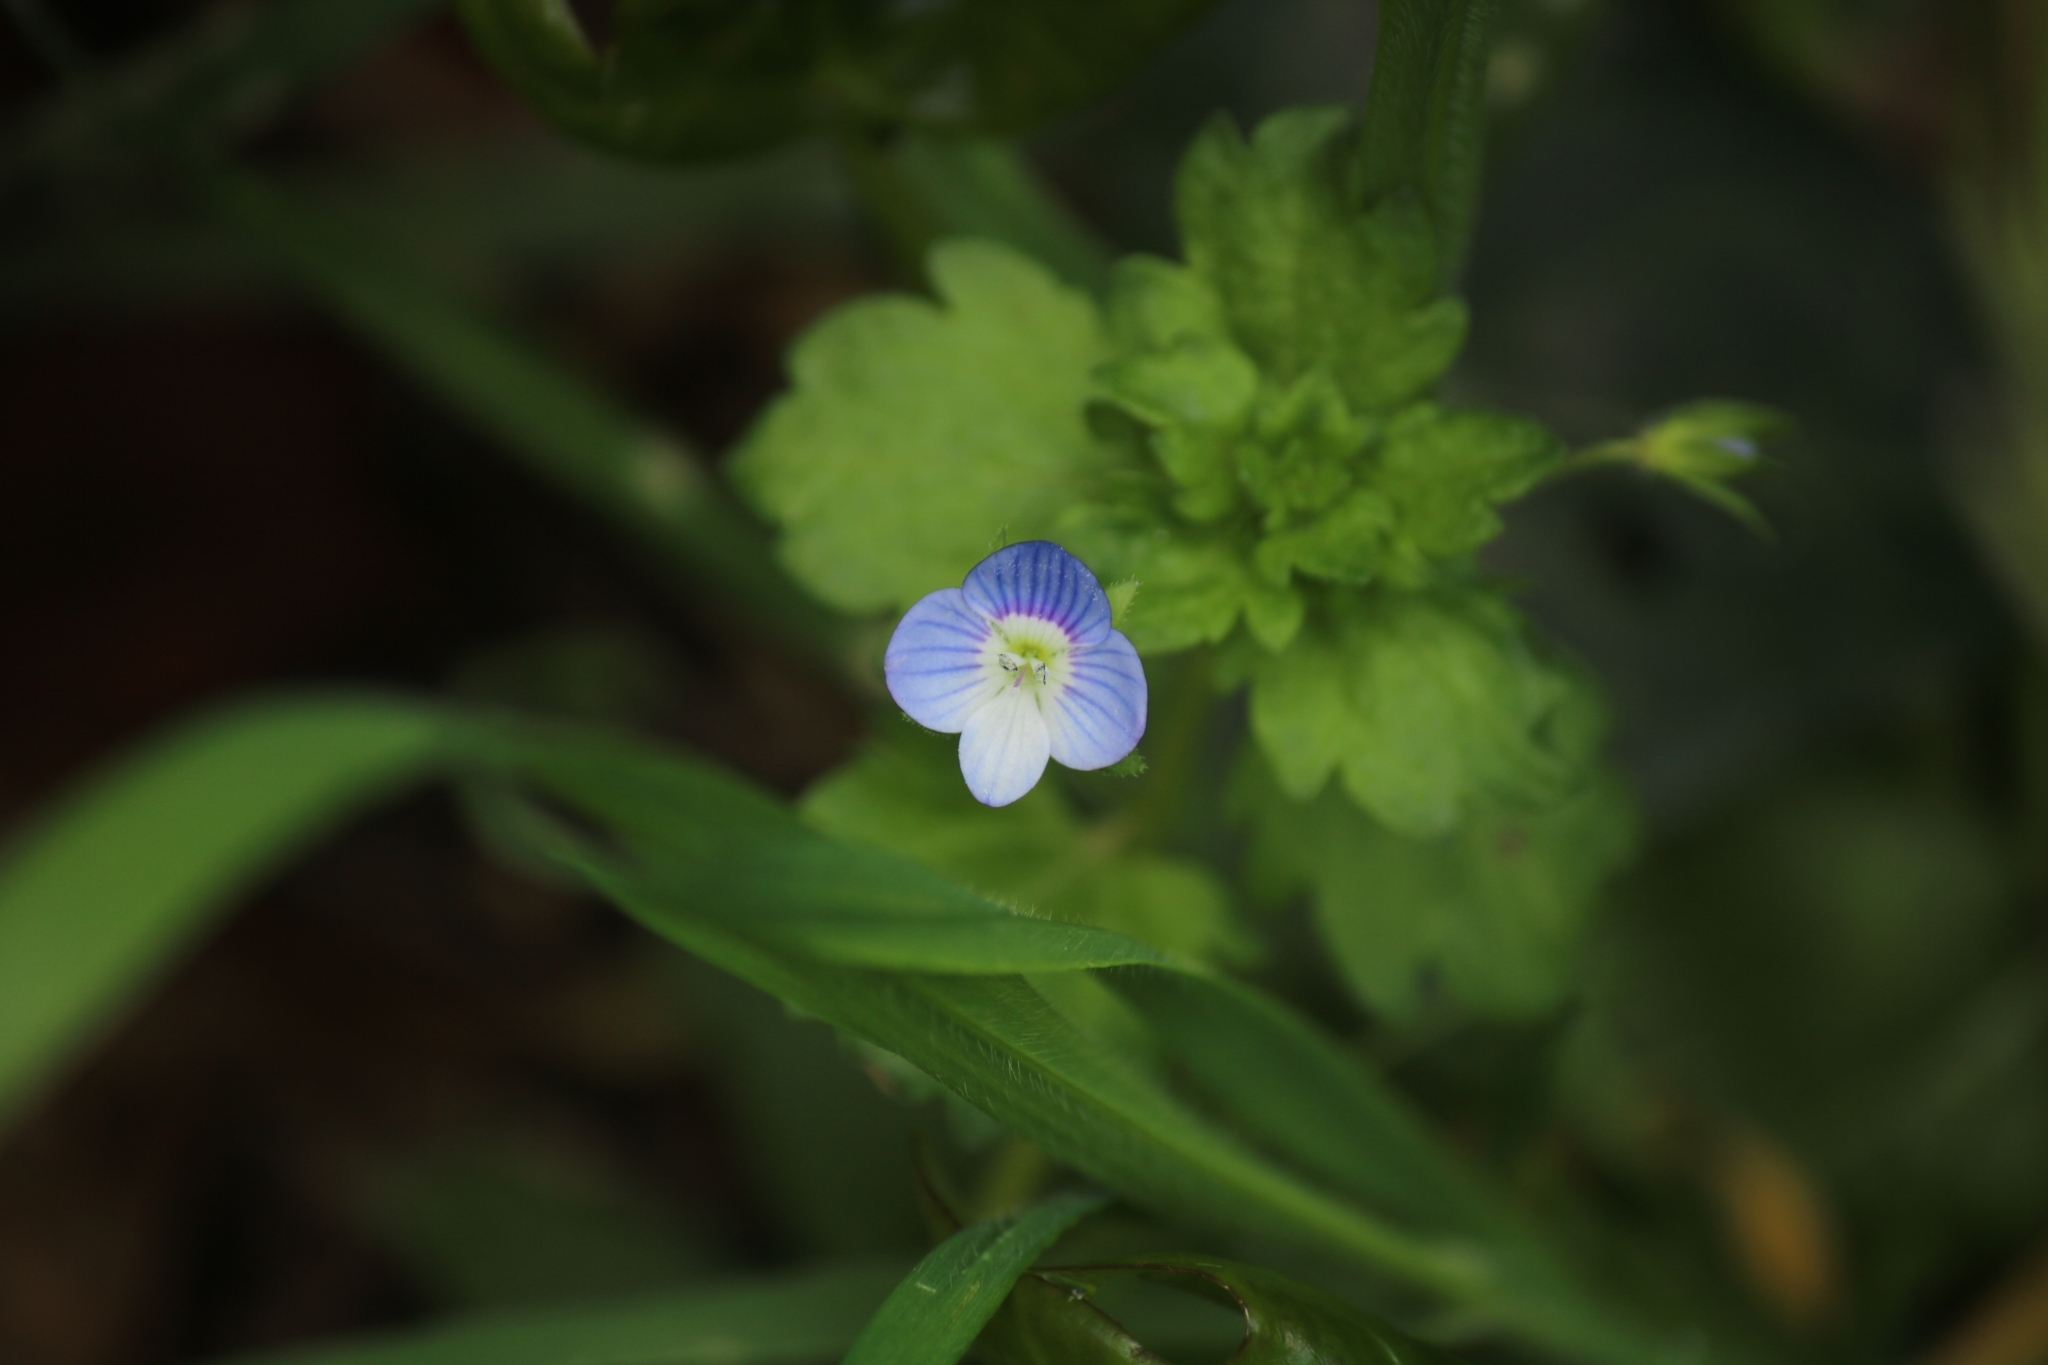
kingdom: Plantae
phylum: Tracheophyta
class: Magnoliopsida
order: Lamiales
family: Plantaginaceae
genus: Veronica
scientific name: Veronica persica
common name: Common field-speedwell
